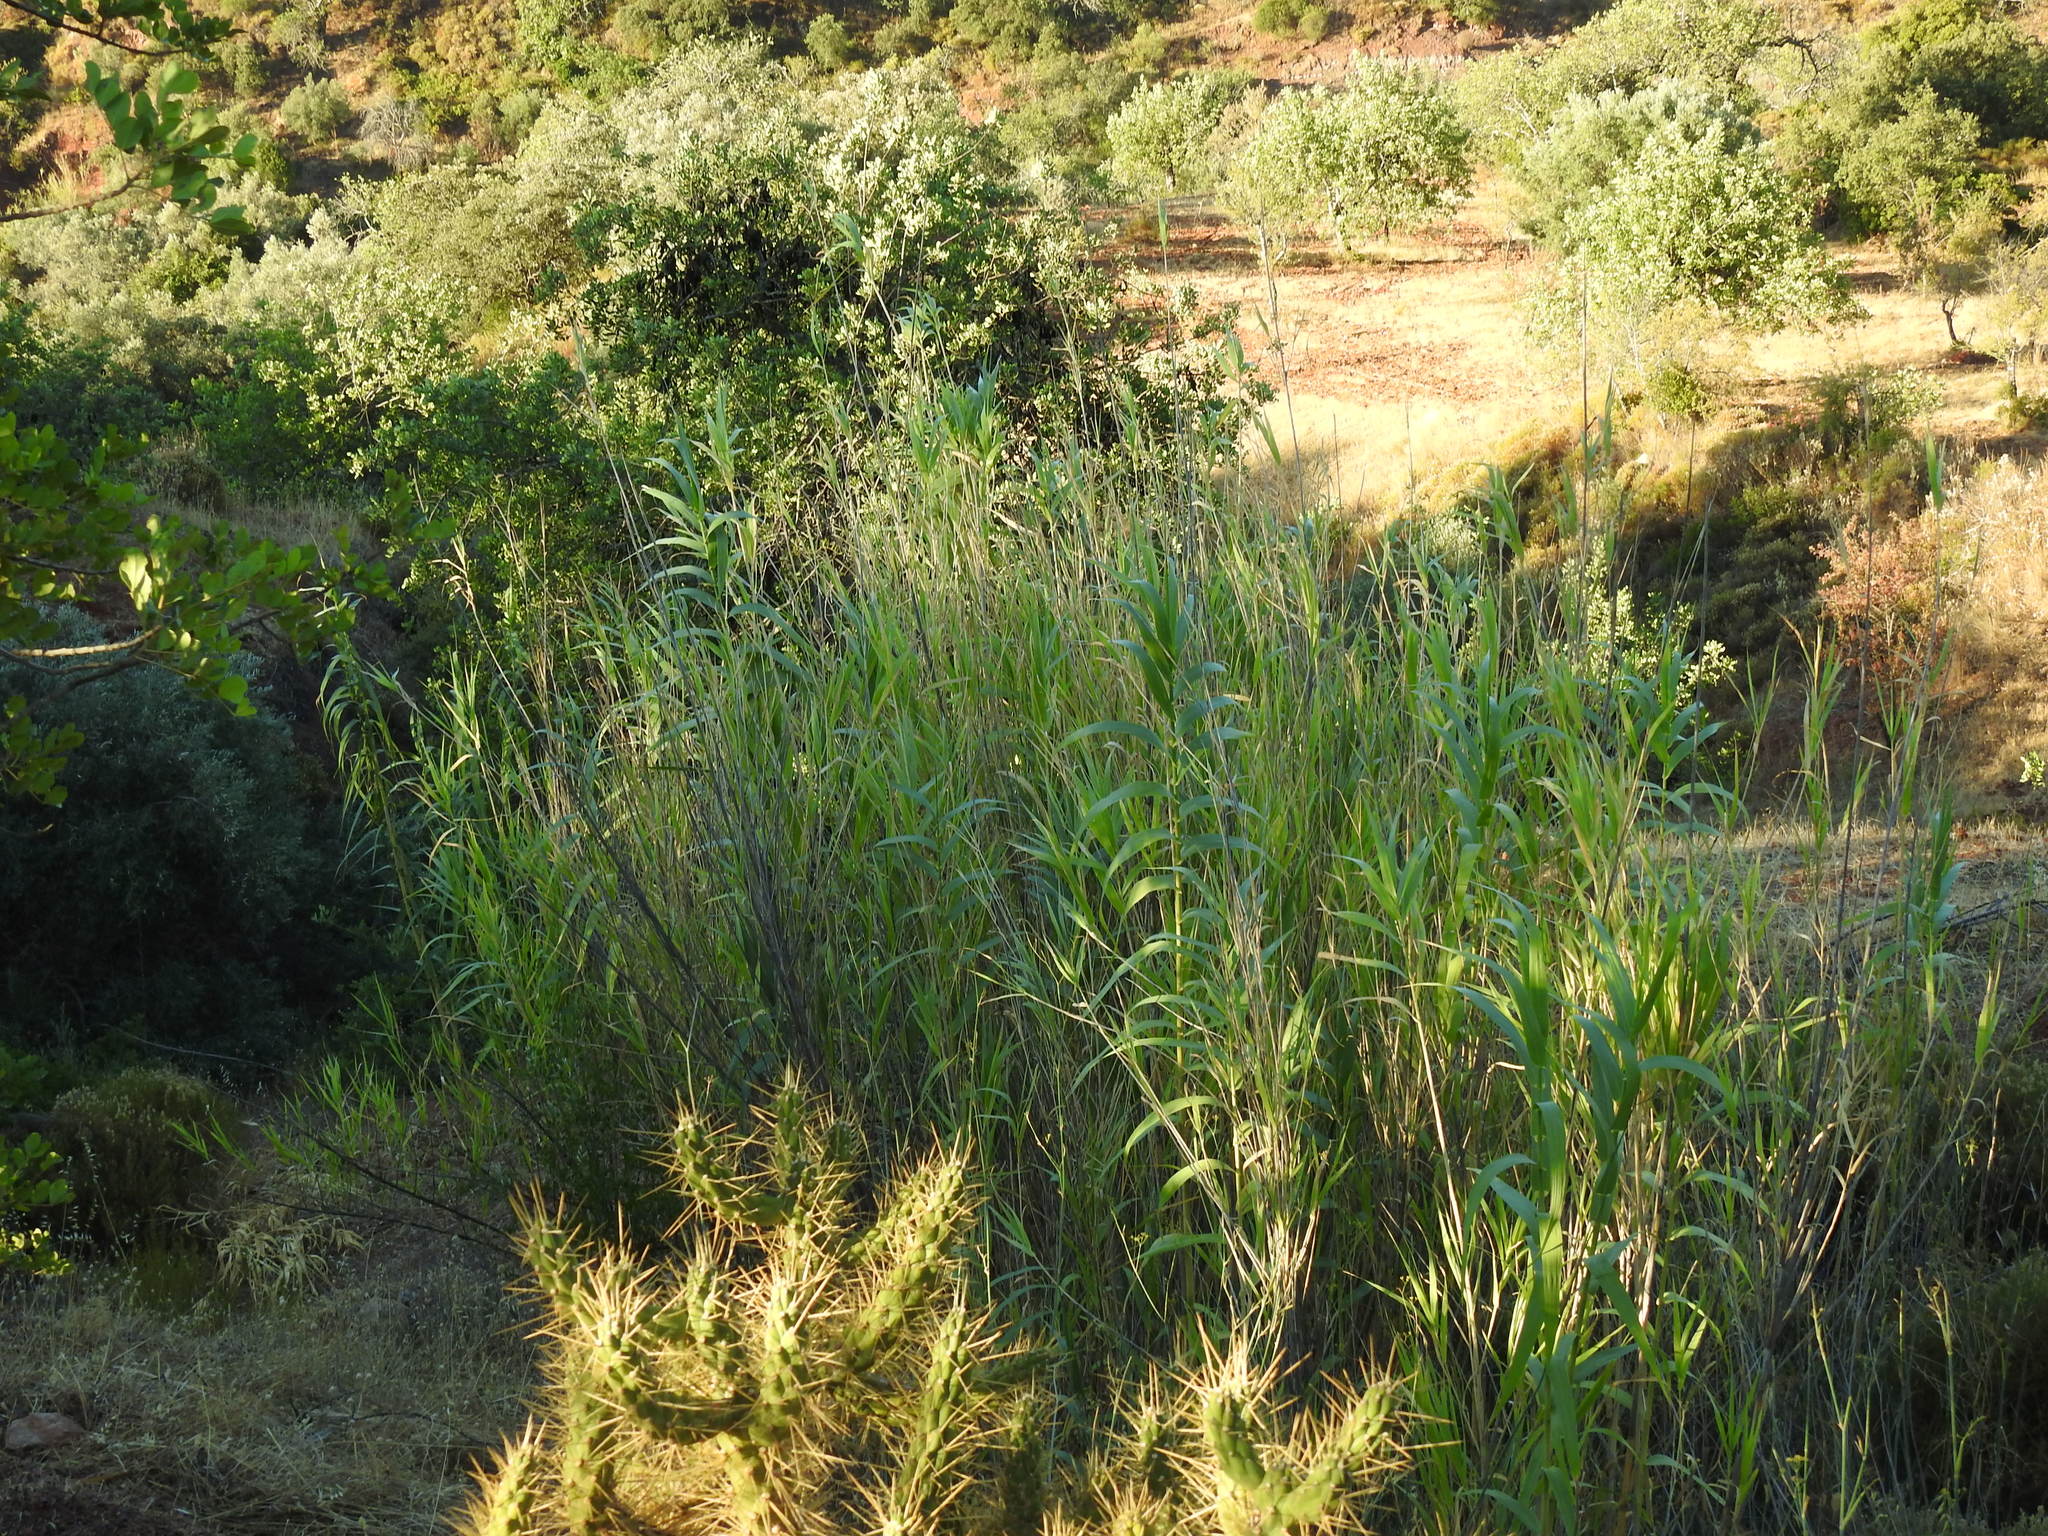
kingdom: Plantae
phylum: Tracheophyta
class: Liliopsida
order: Poales
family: Poaceae
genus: Arundo
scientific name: Arundo donax
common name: Giant reed
